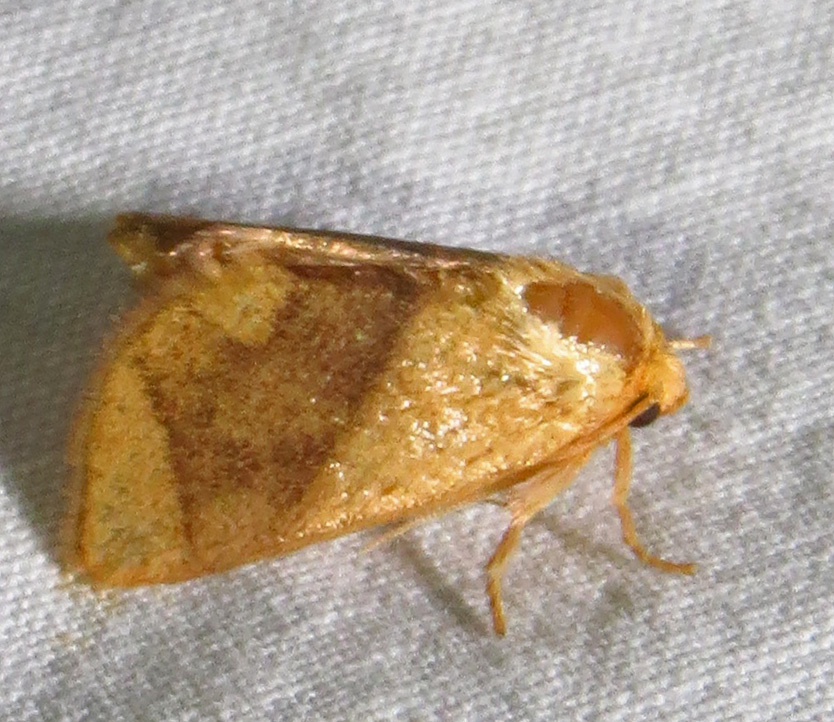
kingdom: Animalia
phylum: Arthropoda
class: Insecta
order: Lepidoptera
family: Limacodidae
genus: Apoda
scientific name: Apoda y-inversa
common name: Yellow-collared slug moth
